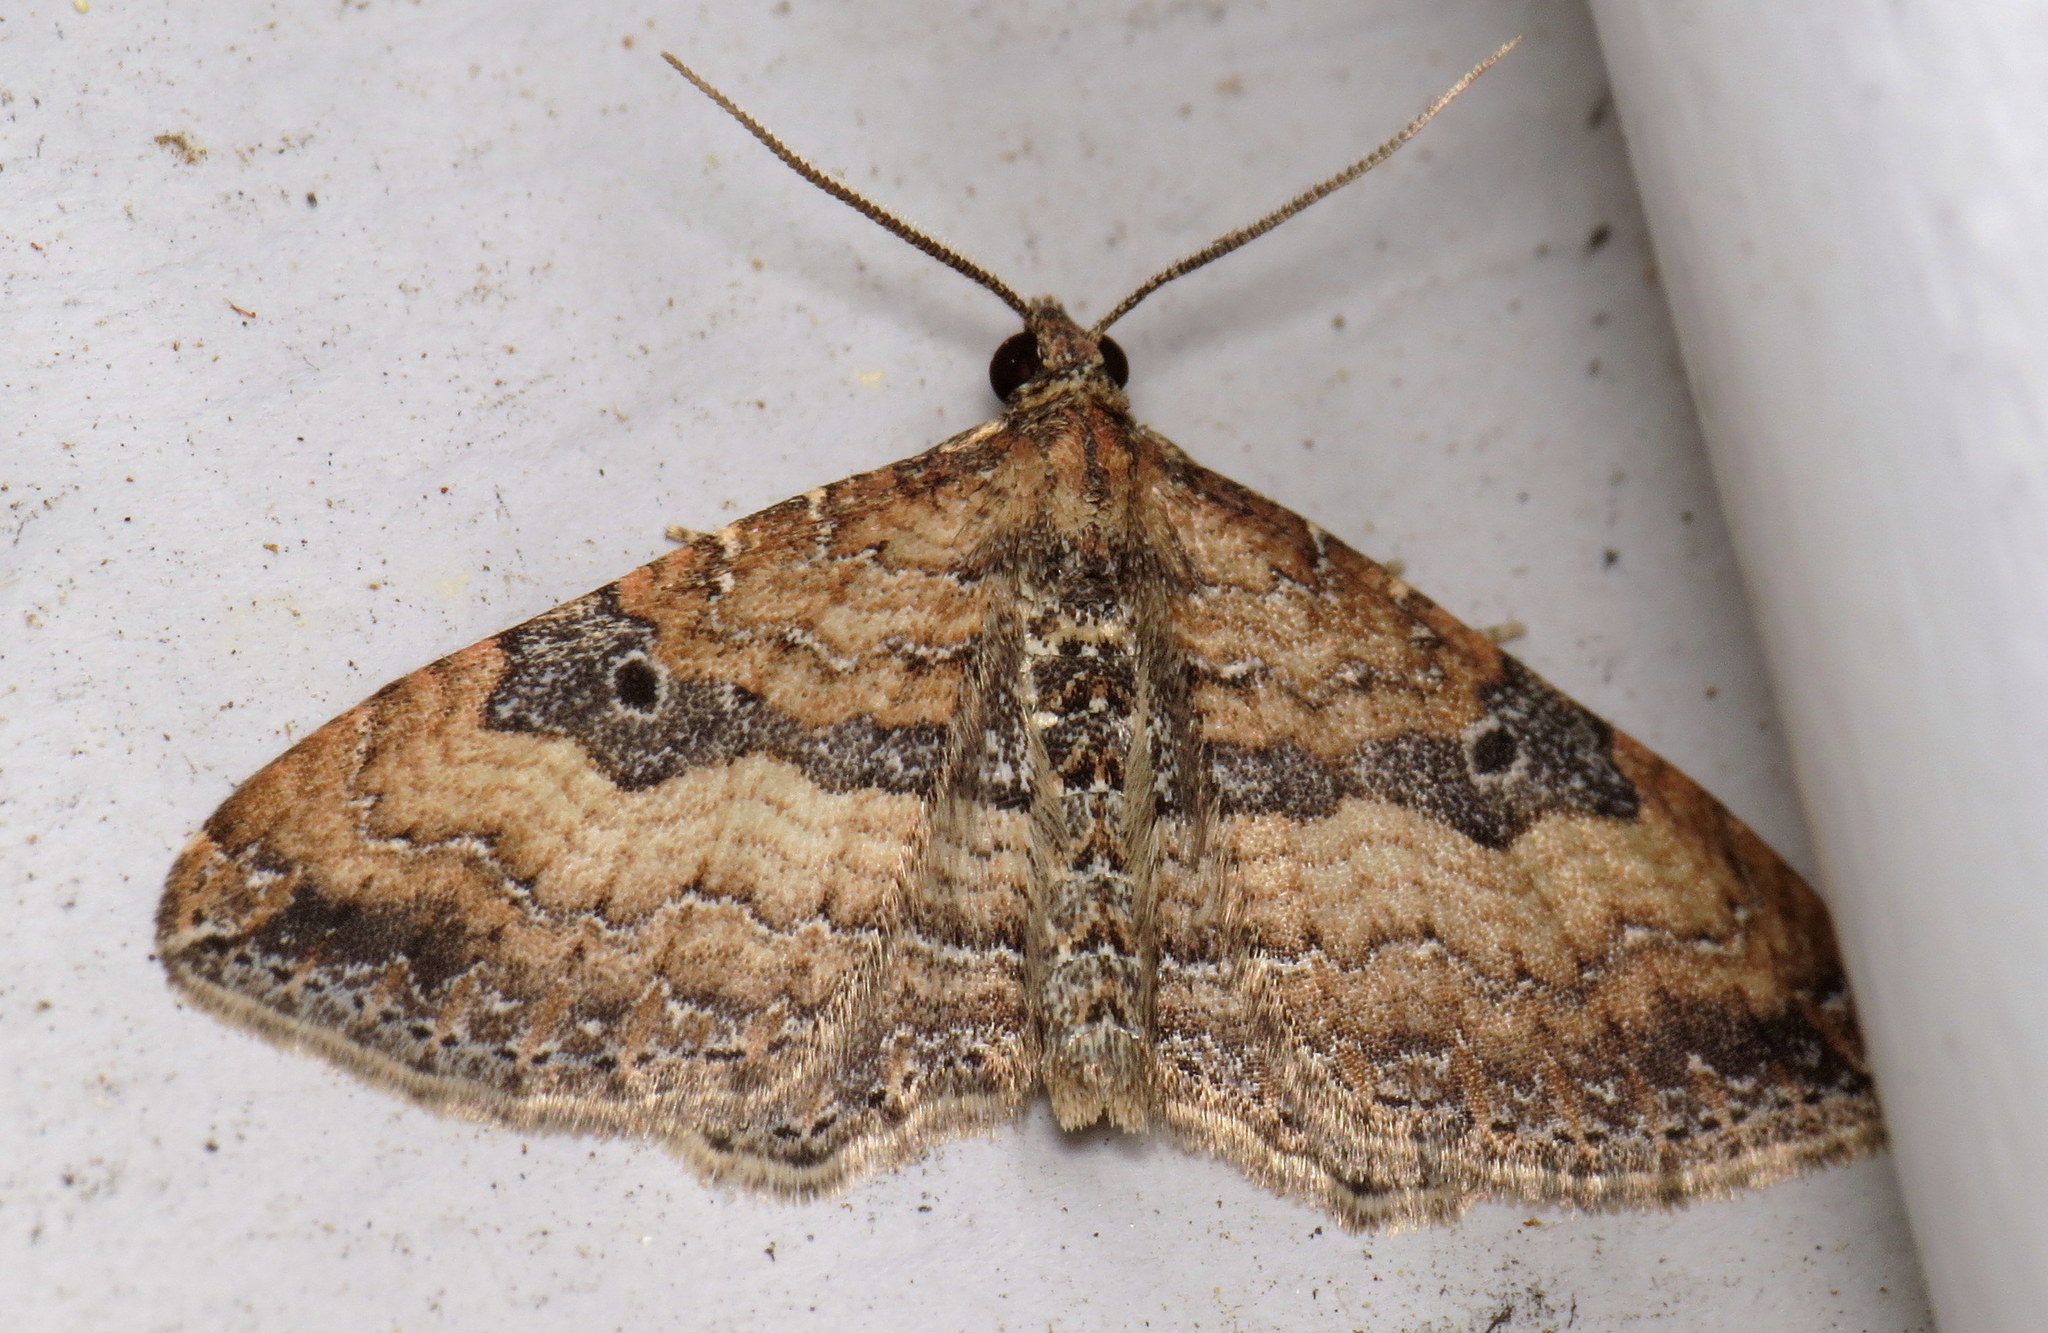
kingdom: Animalia
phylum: Arthropoda
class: Insecta
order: Lepidoptera
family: Geometridae
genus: Orthonama
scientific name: Orthonama obstipata
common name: The gem
